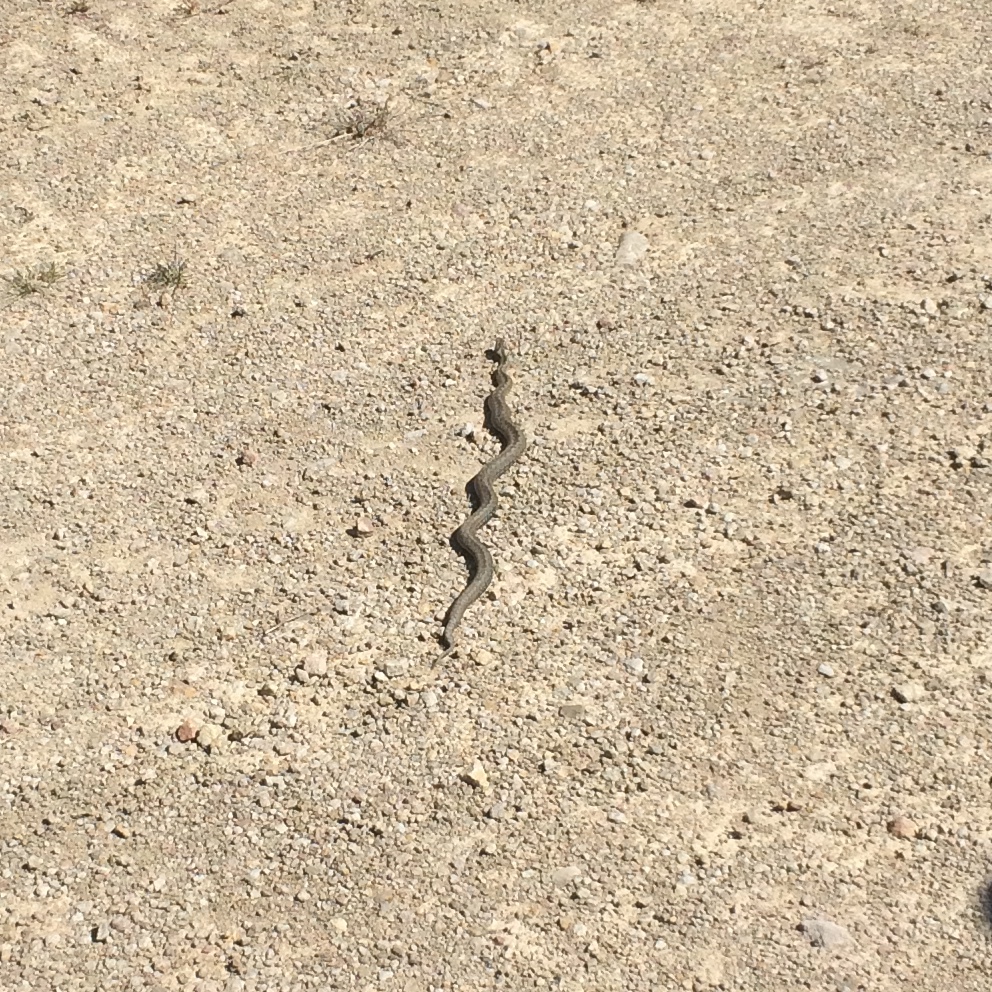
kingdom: Animalia
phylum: Chordata
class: Squamata
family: Viperidae
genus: Vipera
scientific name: Vipera berus
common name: Adder
